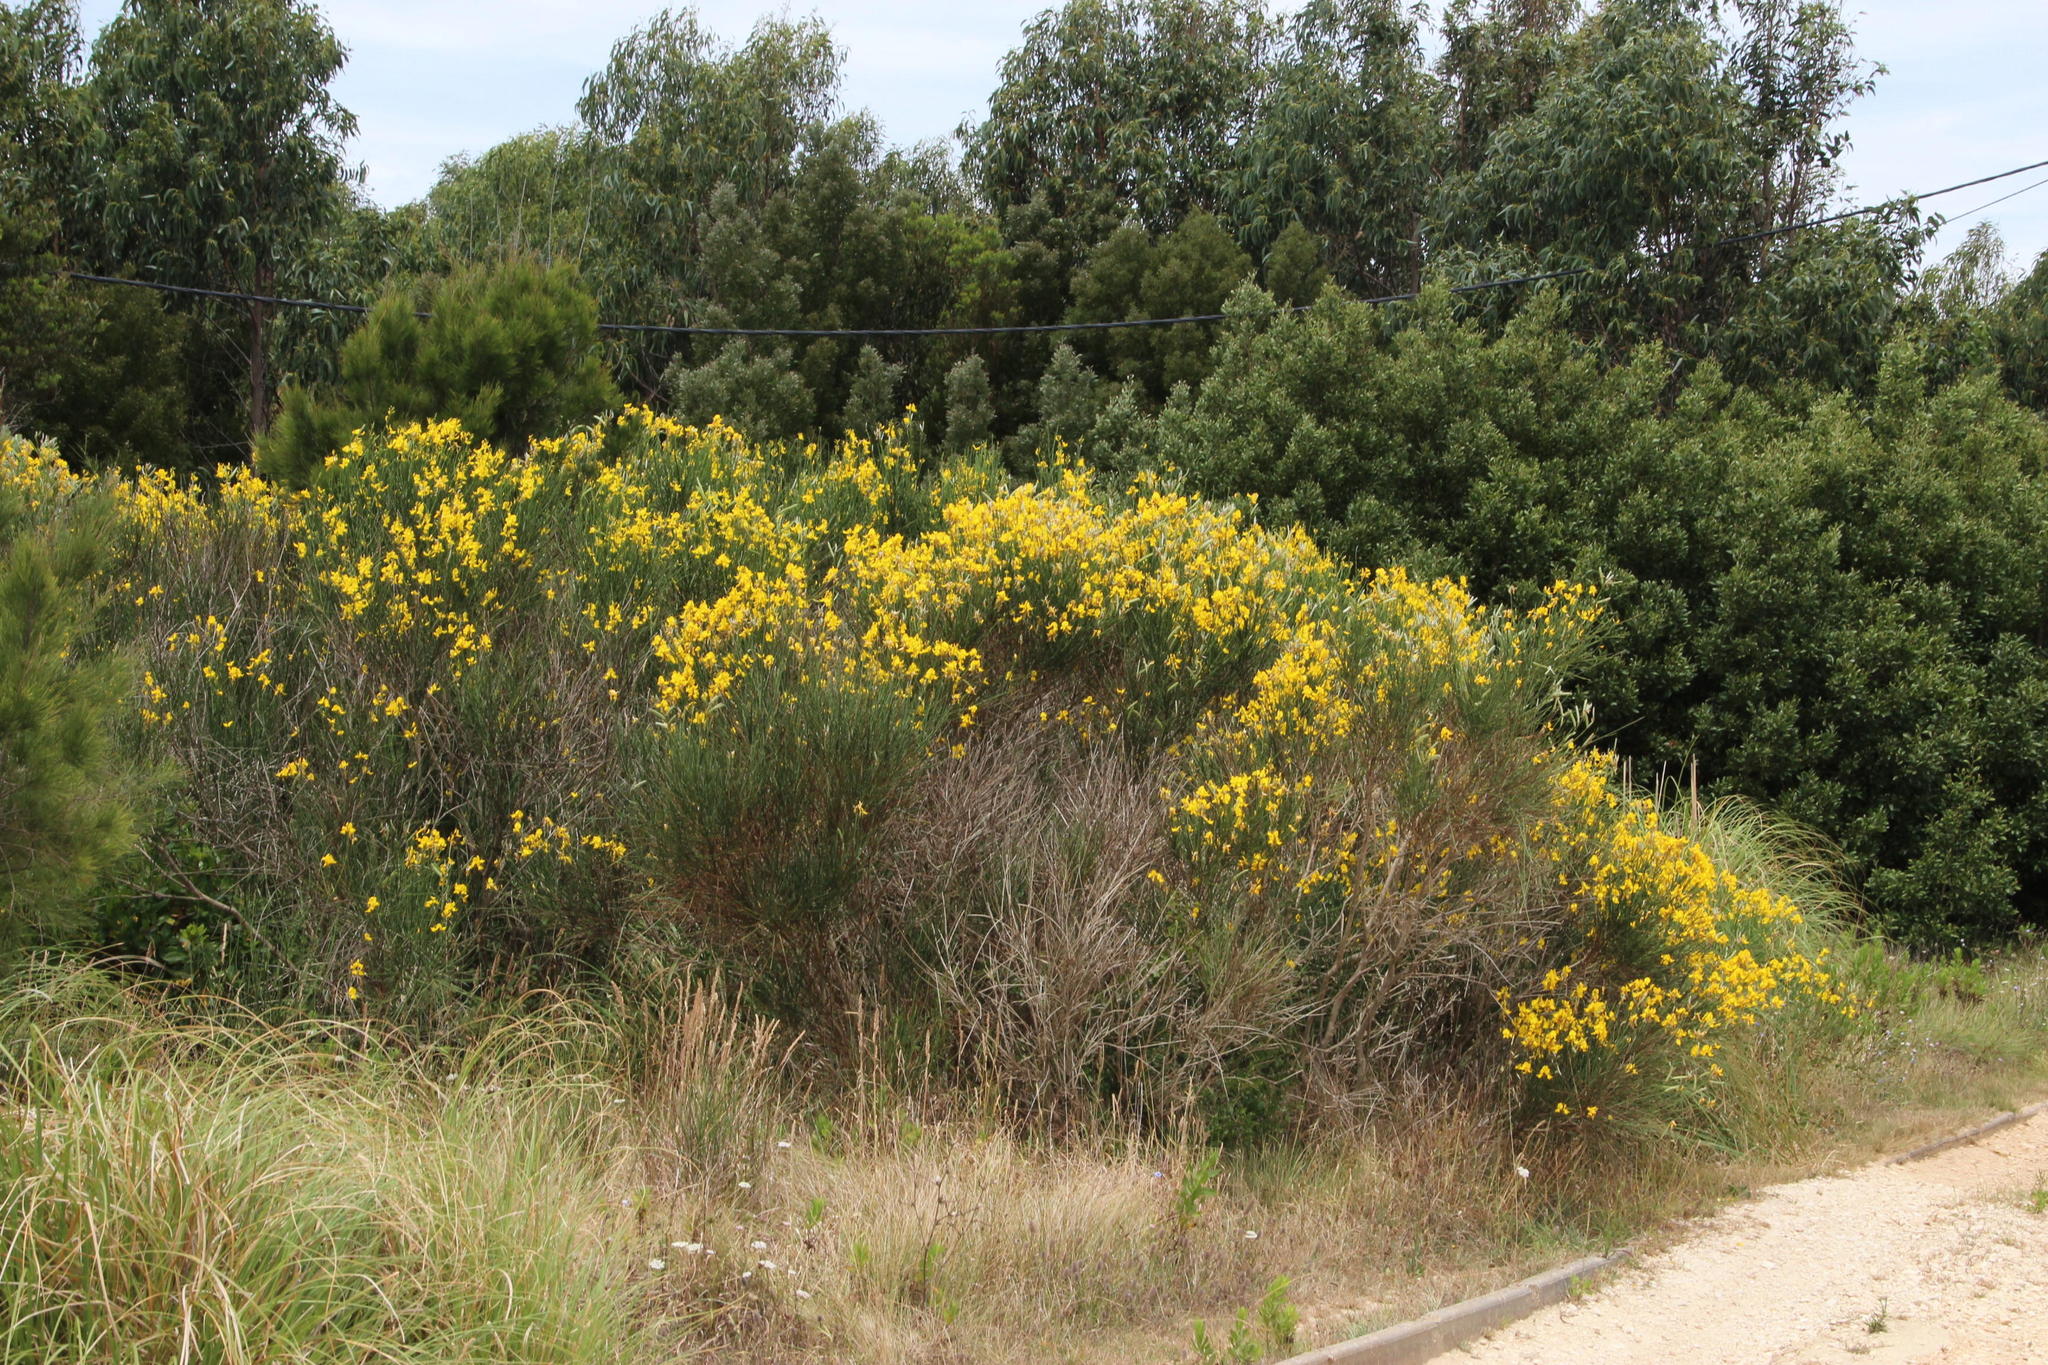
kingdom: Plantae
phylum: Tracheophyta
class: Magnoliopsida
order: Fabales
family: Fabaceae
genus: Spartium
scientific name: Spartium junceum
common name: Spanish broom
